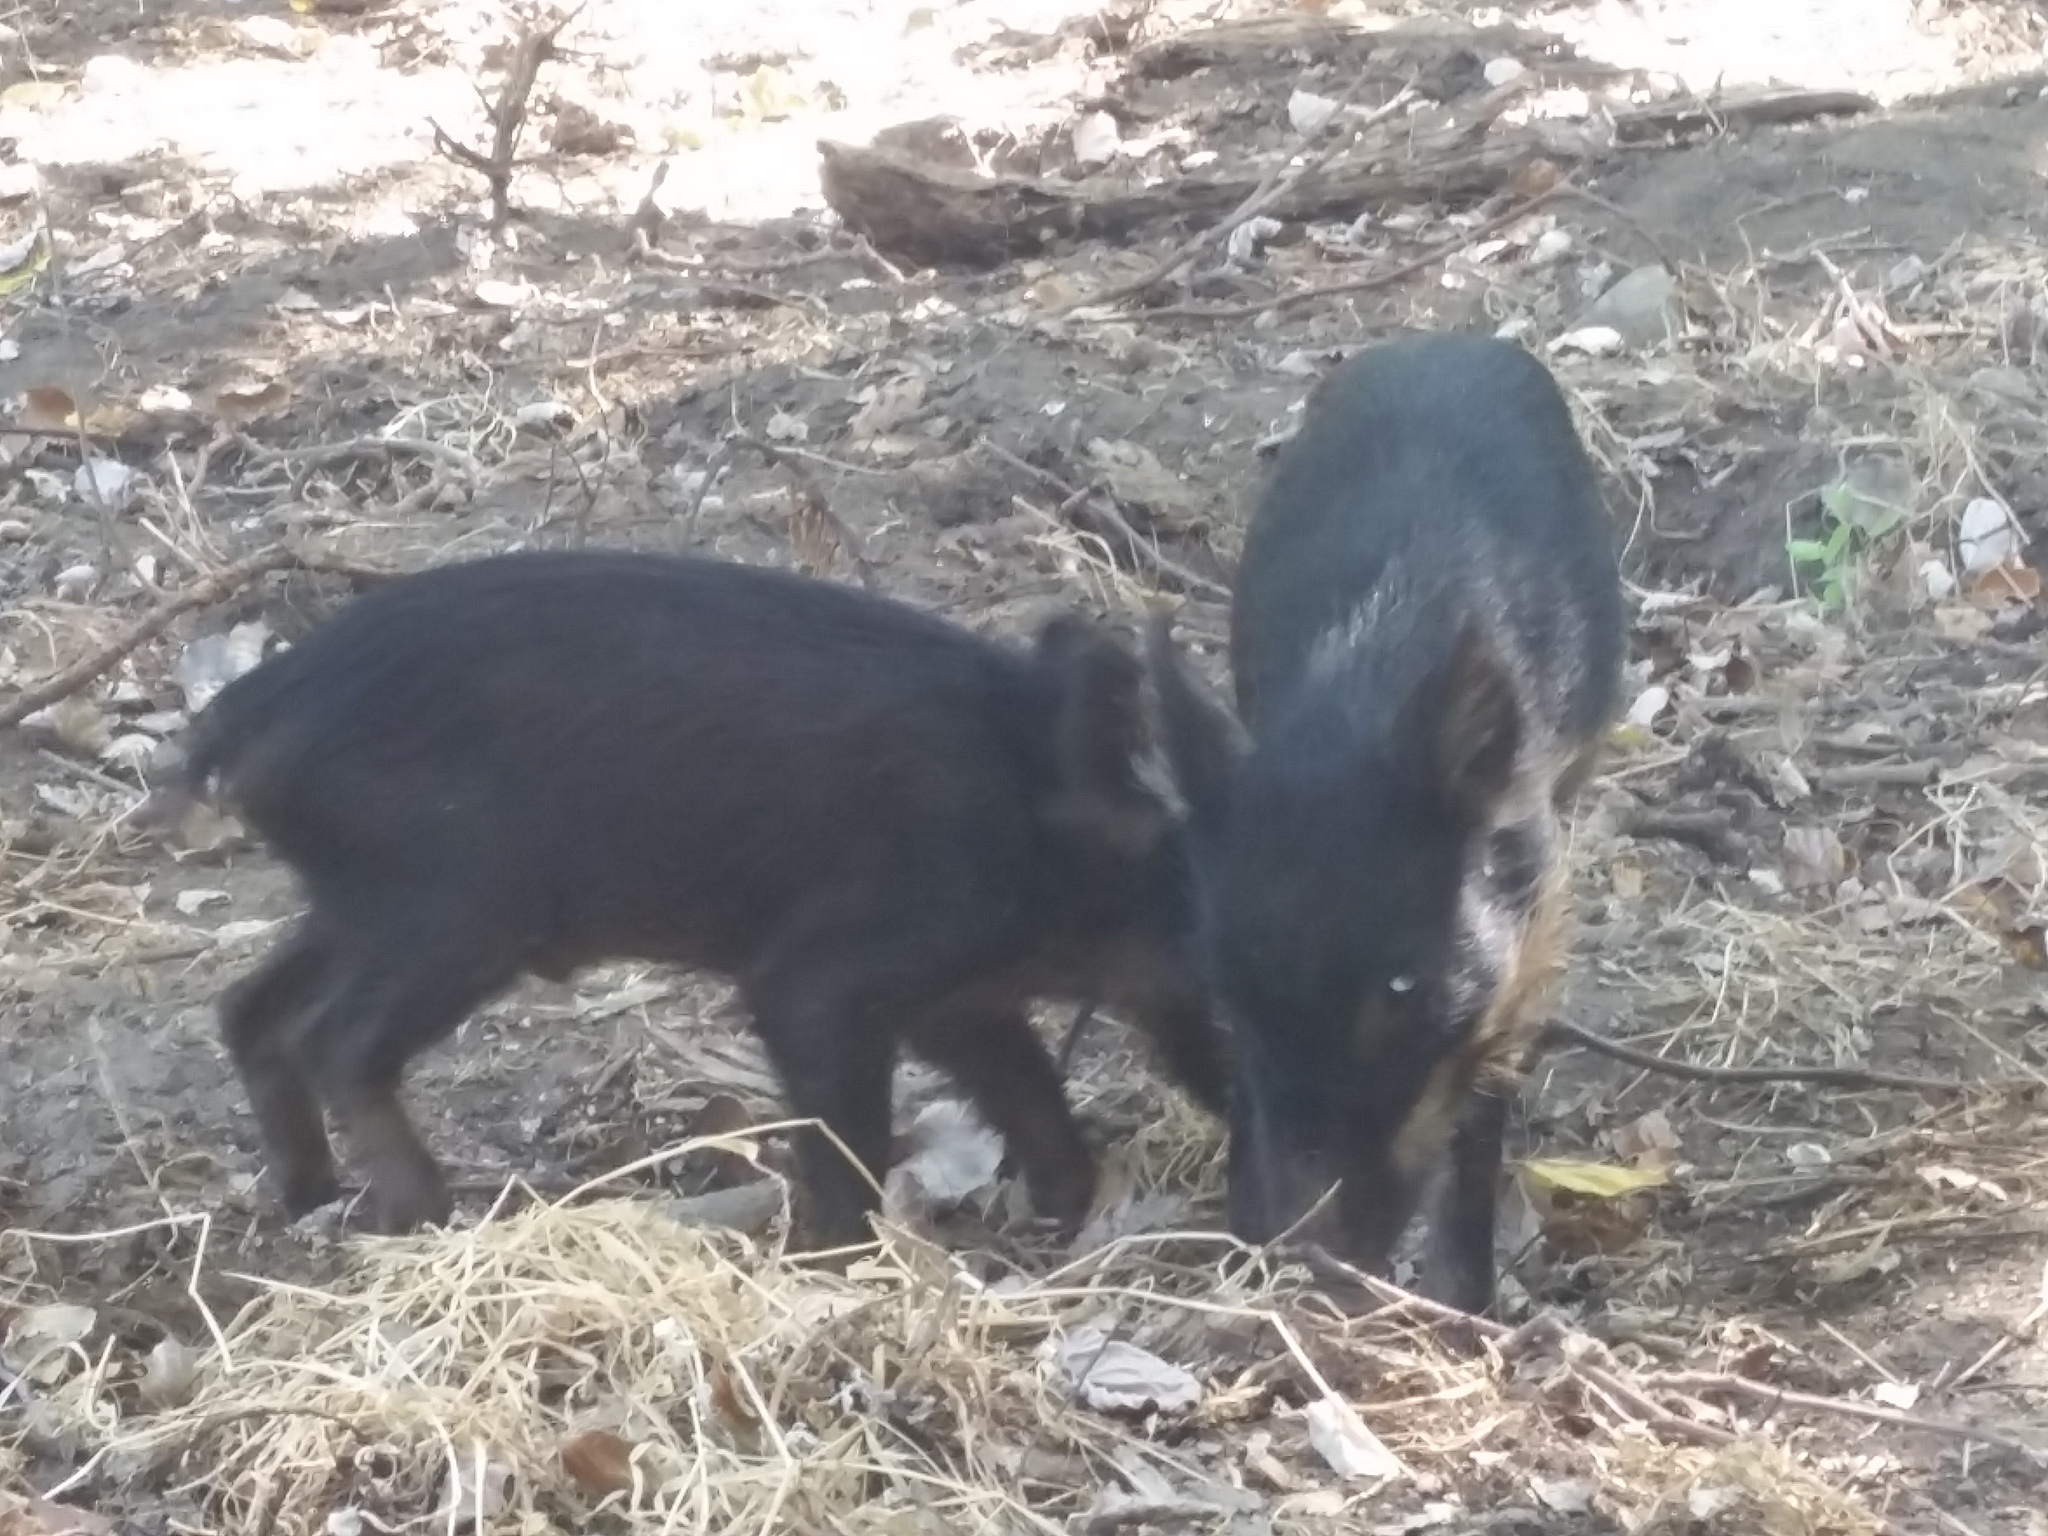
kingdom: Animalia
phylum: Chordata
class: Mammalia
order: Artiodactyla
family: Suidae
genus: Sus
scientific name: Sus scrofa
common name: Wild boar
